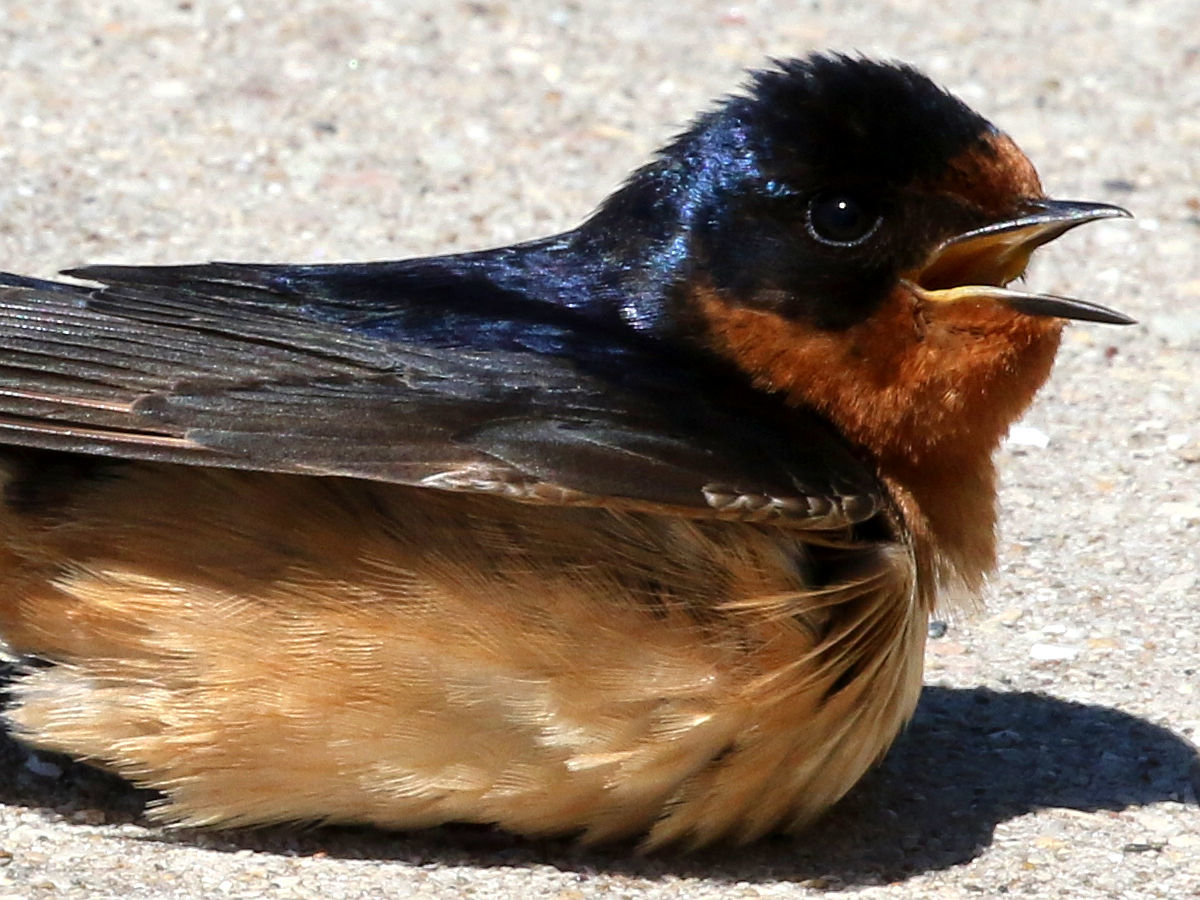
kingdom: Animalia
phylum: Chordata
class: Aves
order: Passeriformes
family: Hirundinidae
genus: Hirundo
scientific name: Hirundo rustica
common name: Barn swallow
